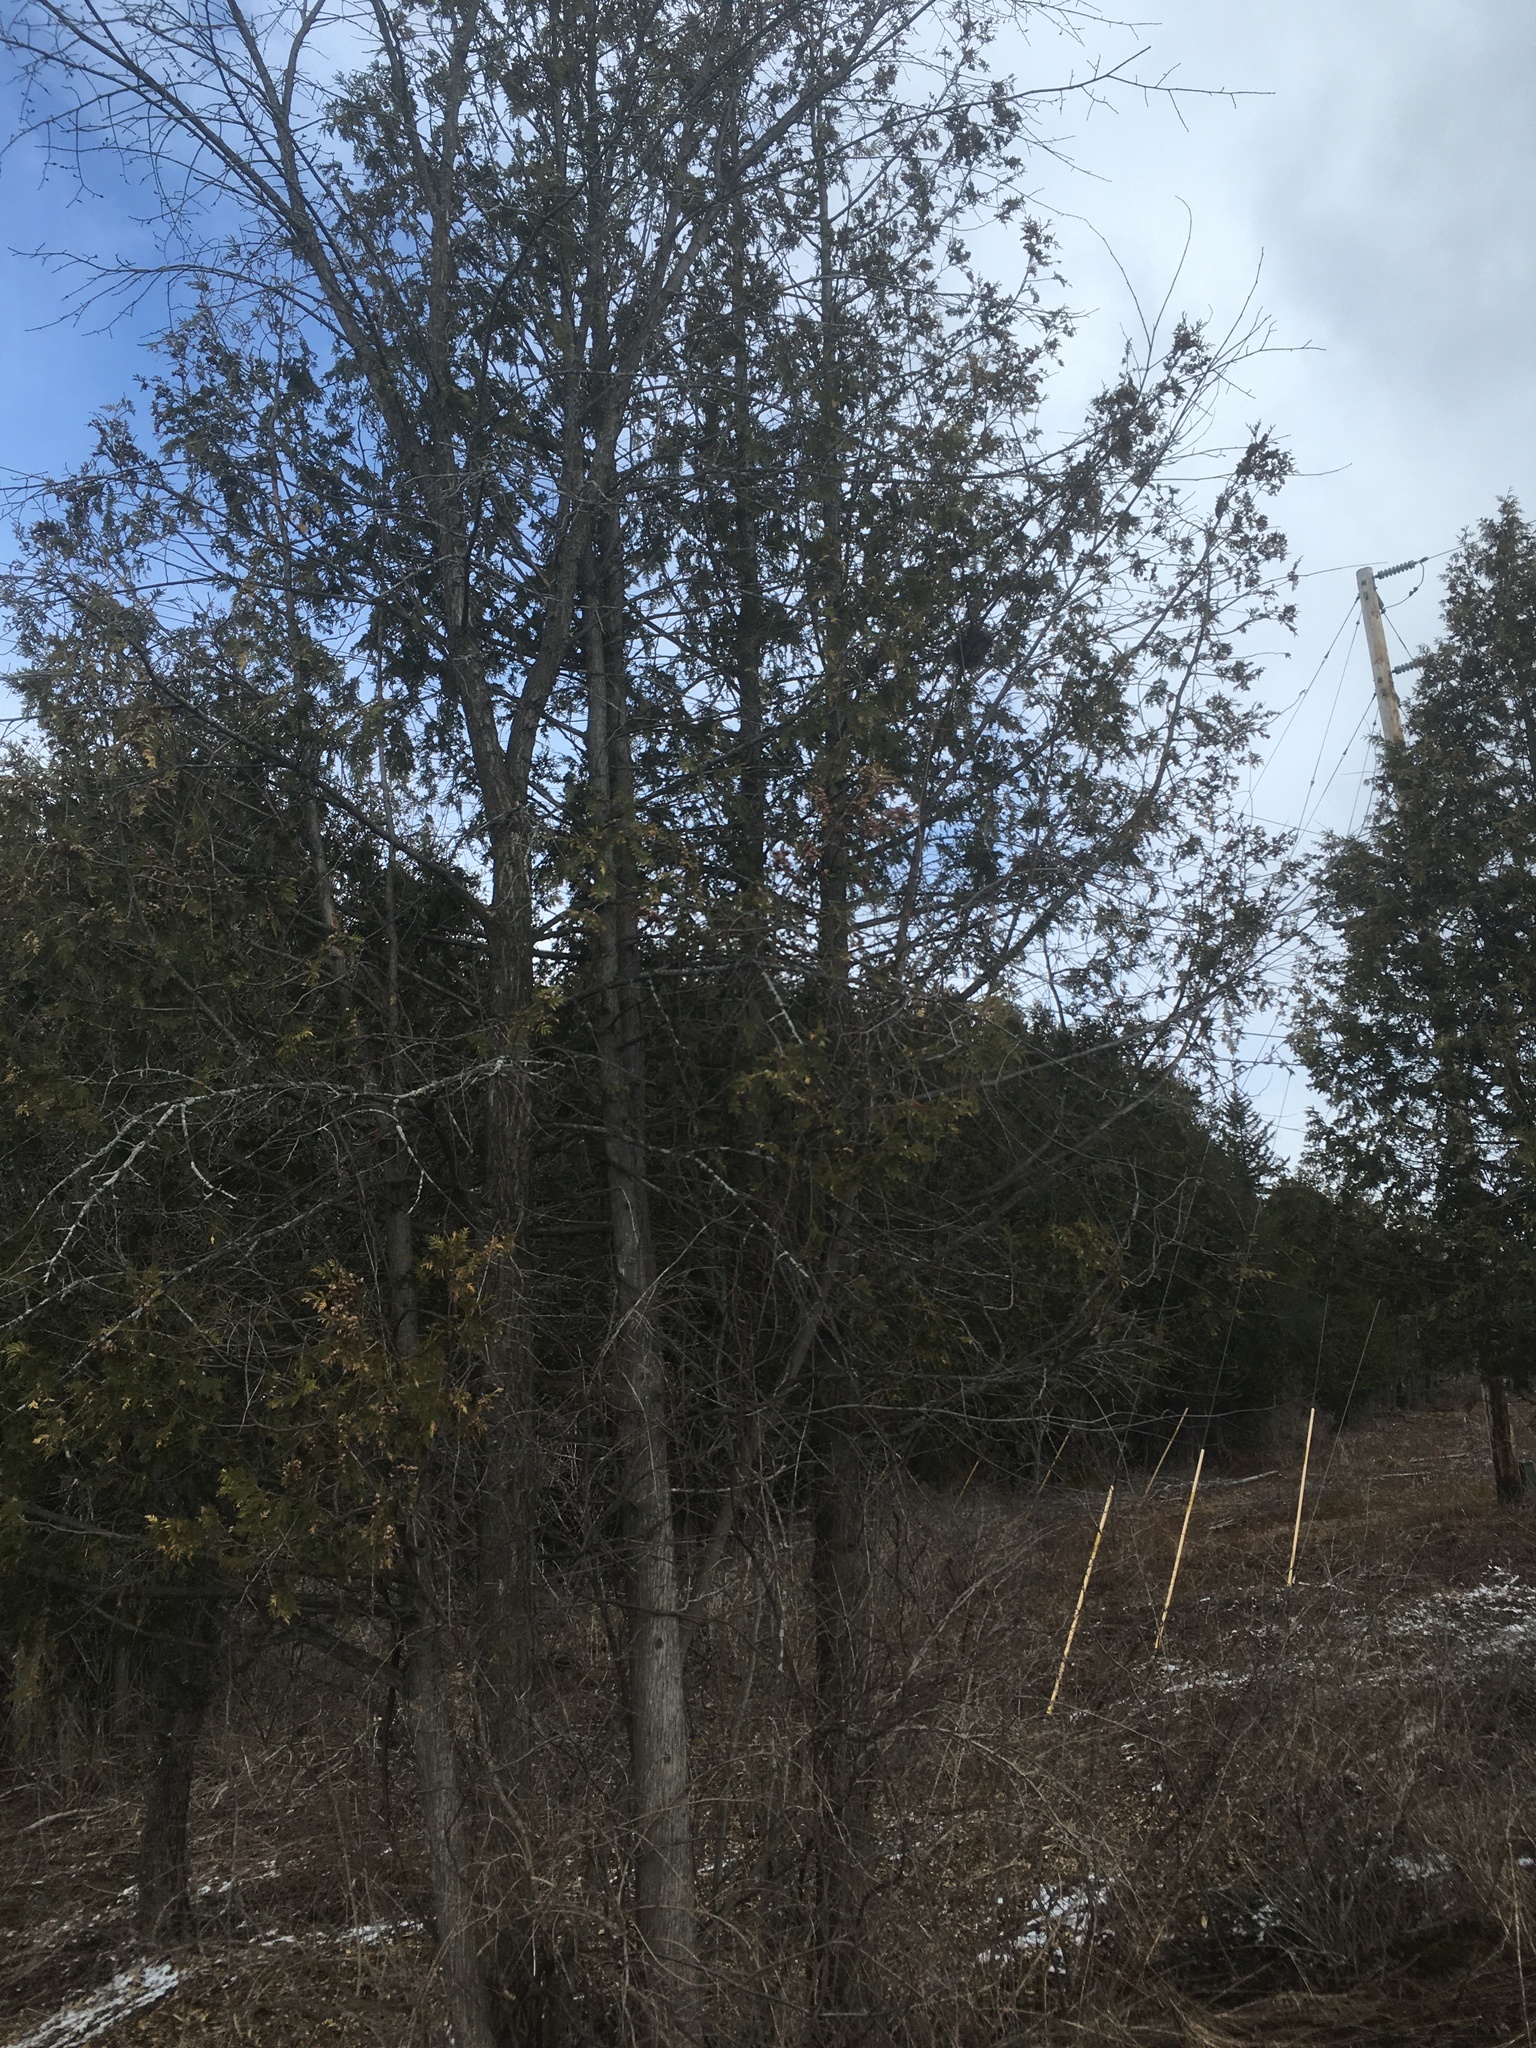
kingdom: Plantae
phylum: Tracheophyta
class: Pinopsida
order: Pinales
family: Cupressaceae
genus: Thuja
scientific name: Thuja occidentalis
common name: Northern white-cedar
